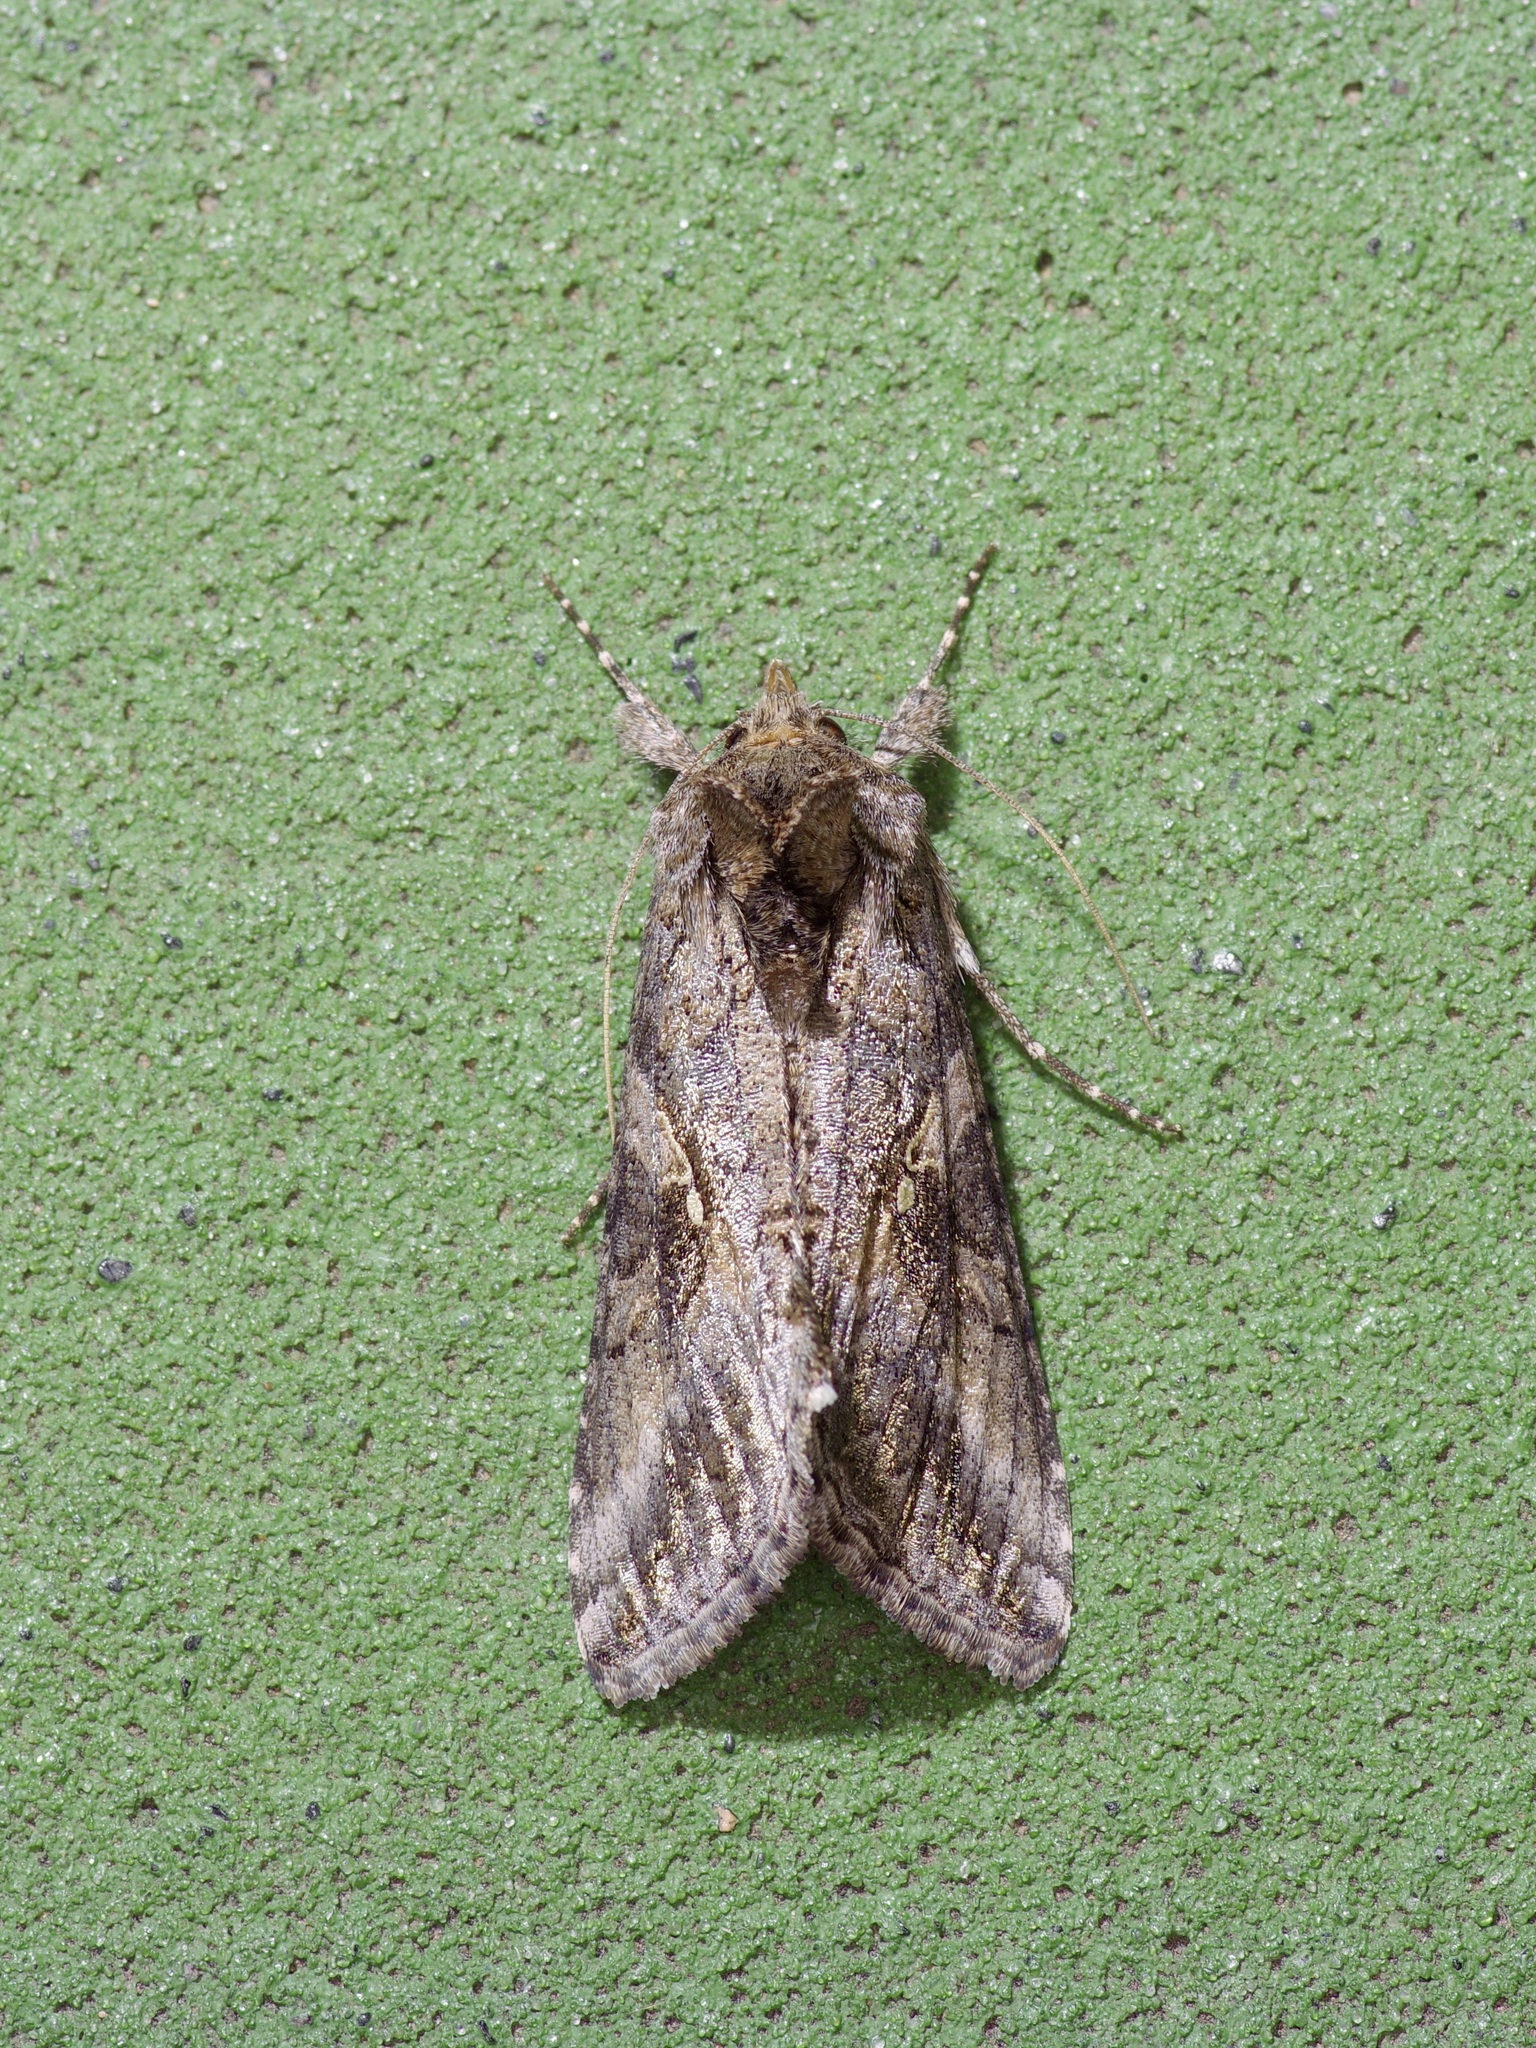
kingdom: Animalia
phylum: Arthropoda
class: Insecta
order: Lepidoptera
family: Noctuidae
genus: Rachiplusia
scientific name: Rachiplusia ou
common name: Gray looper moth
